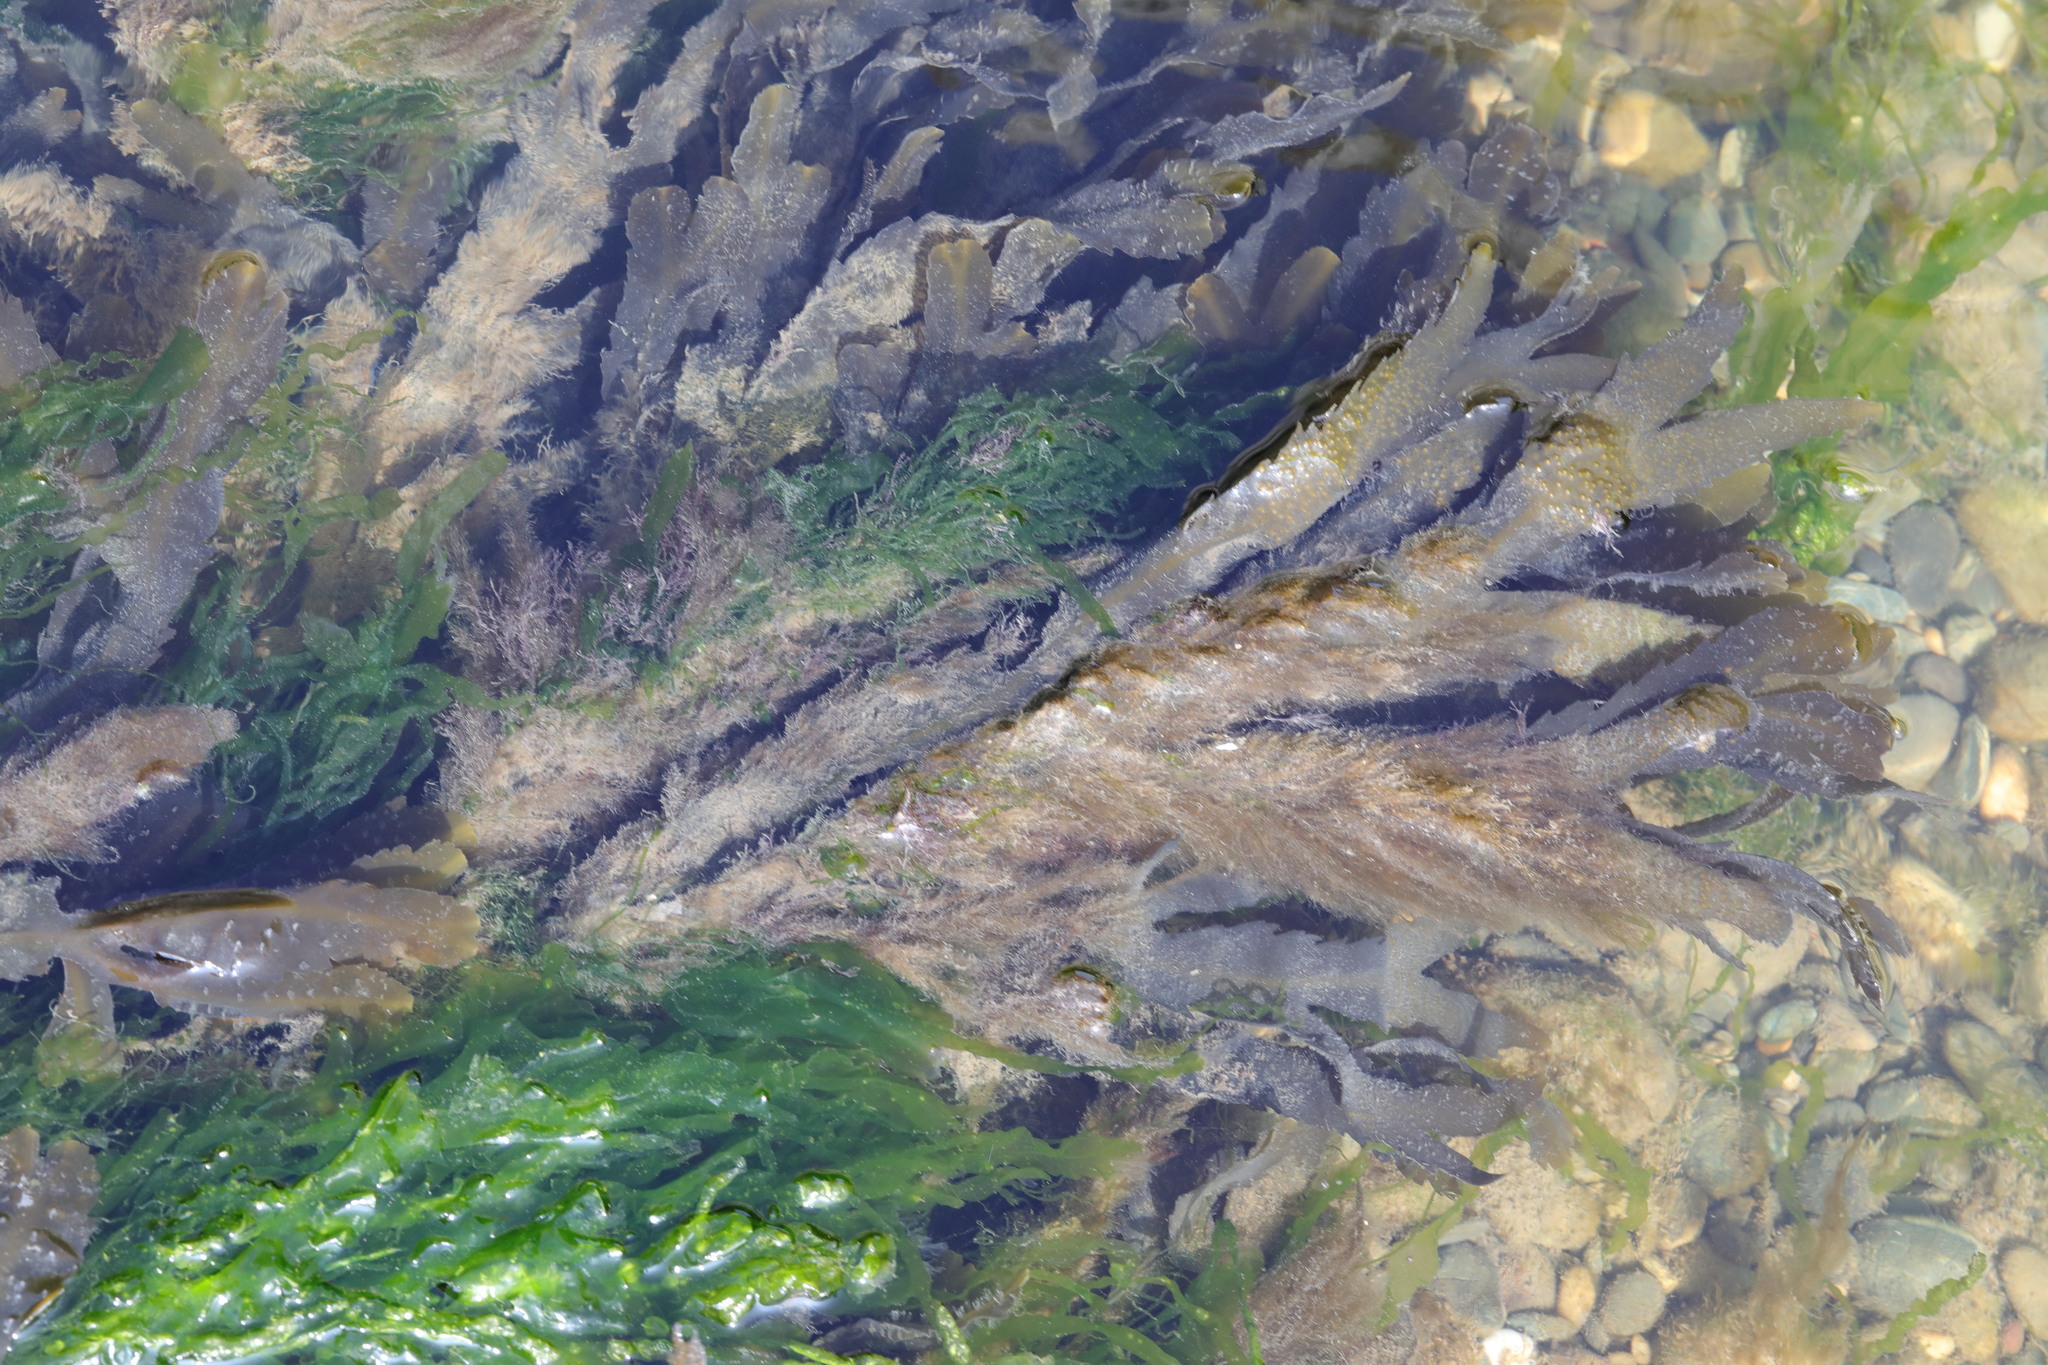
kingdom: Chromista
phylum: Ochrophyta
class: Phaeophyceae
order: Fucales
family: Fucaceae
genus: Fucus
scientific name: Fucus serratus
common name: Toothed wrack
